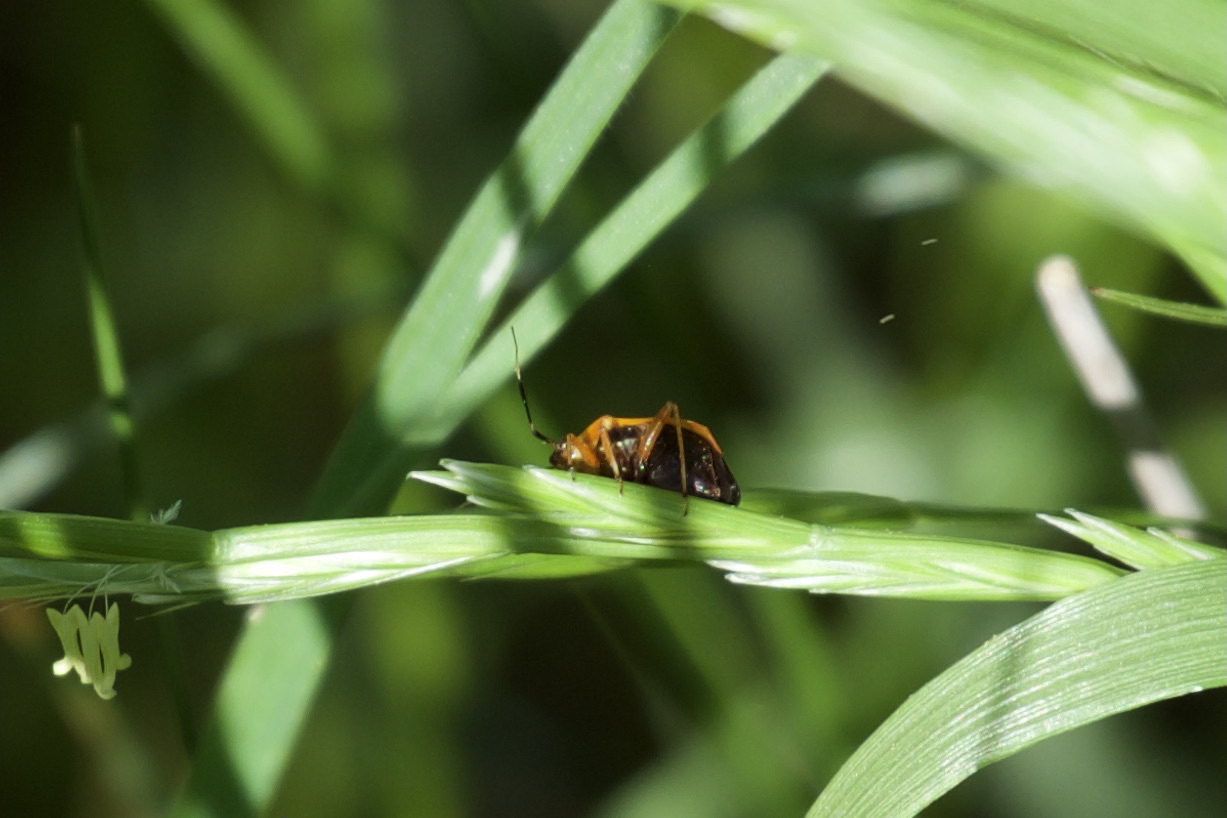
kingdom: Animalia
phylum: Arthropoda
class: Insecta
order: Hemiptera
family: Miridae
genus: Metriorrhynchomiris
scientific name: Metriorrhynchomiris dislocatus
